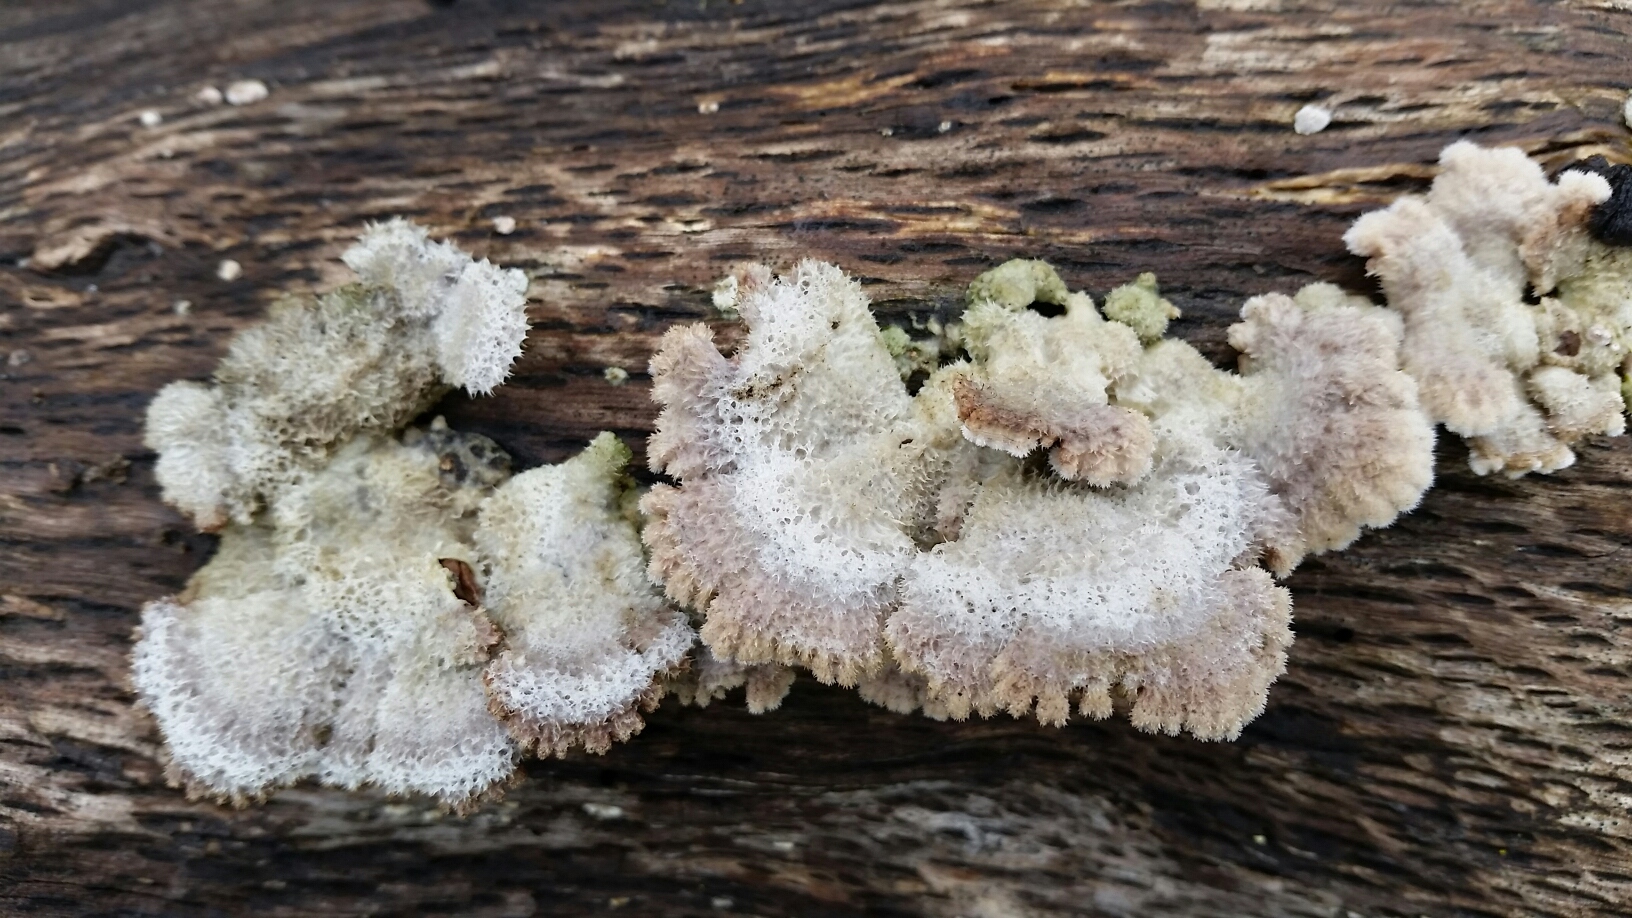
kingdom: Fungi
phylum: Basidiomycota
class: Agaricomycetes
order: Agaricales
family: Schizophyllaceae
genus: Schizophyllum
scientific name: Schizophyllum commune
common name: Common porecrust
